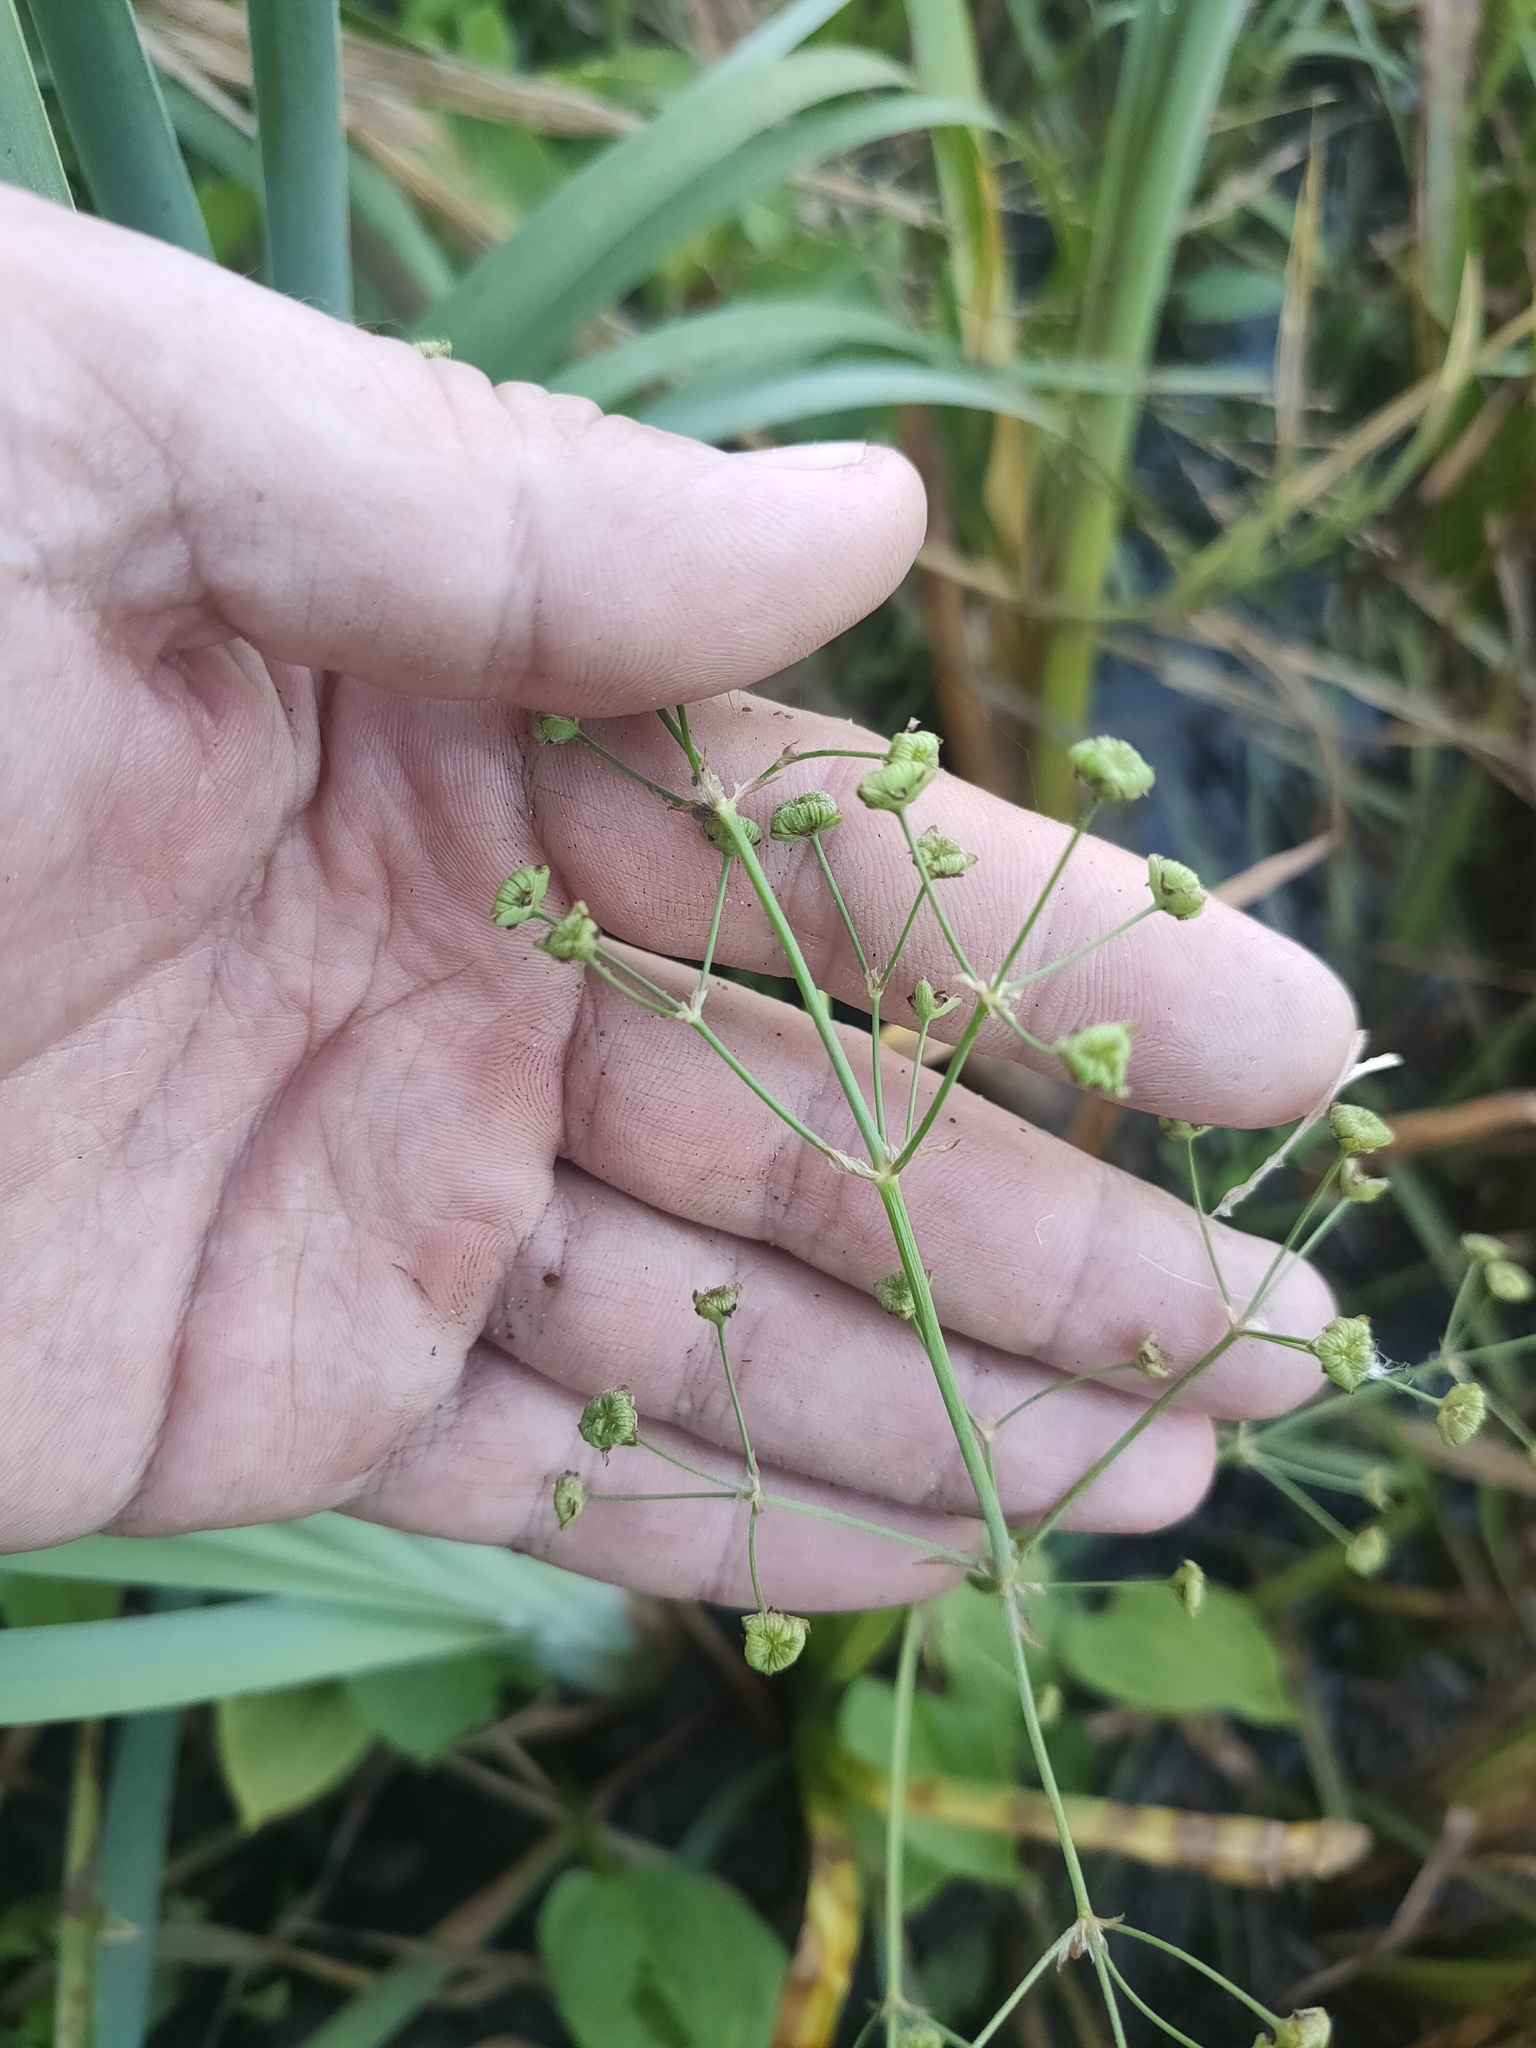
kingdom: Plantae
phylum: Tracheophyta
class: Liliopsida
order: Alismatales
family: Alismataceae
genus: Alisma
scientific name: Alisma plantago-aquatica
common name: Water-plantain
